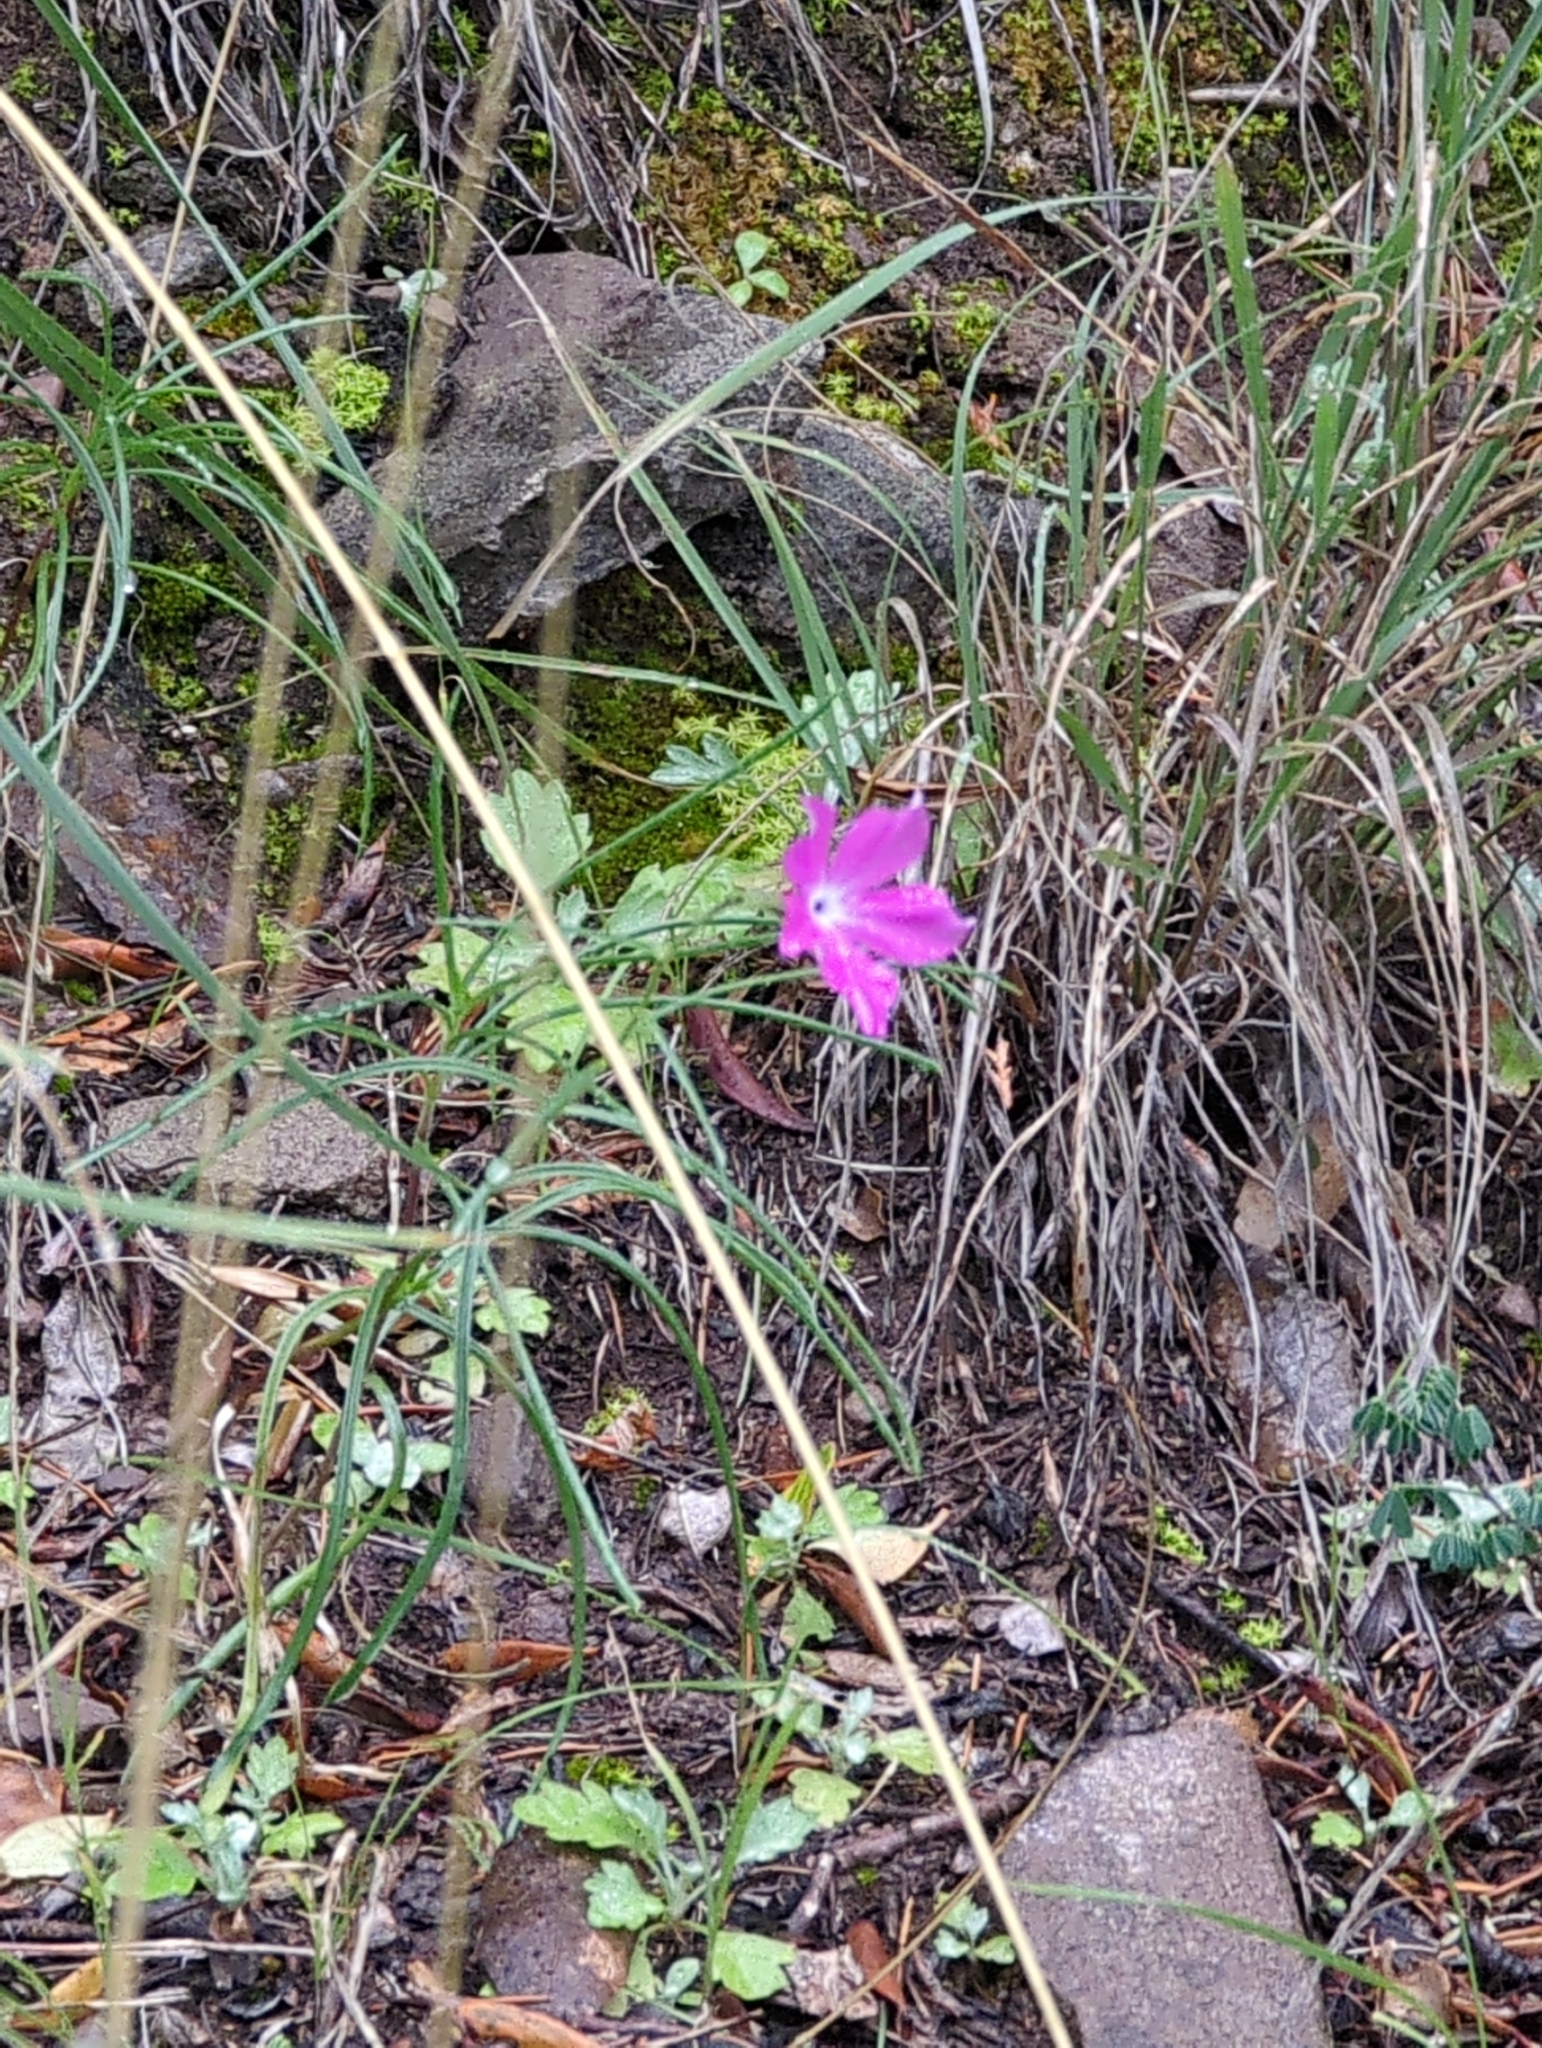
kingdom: Plantae
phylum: Tracheophyta
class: Magnoliopsida
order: Ericales
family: Polemoniaceae
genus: Phlox
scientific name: Phlox nana
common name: Santa fe phlox
